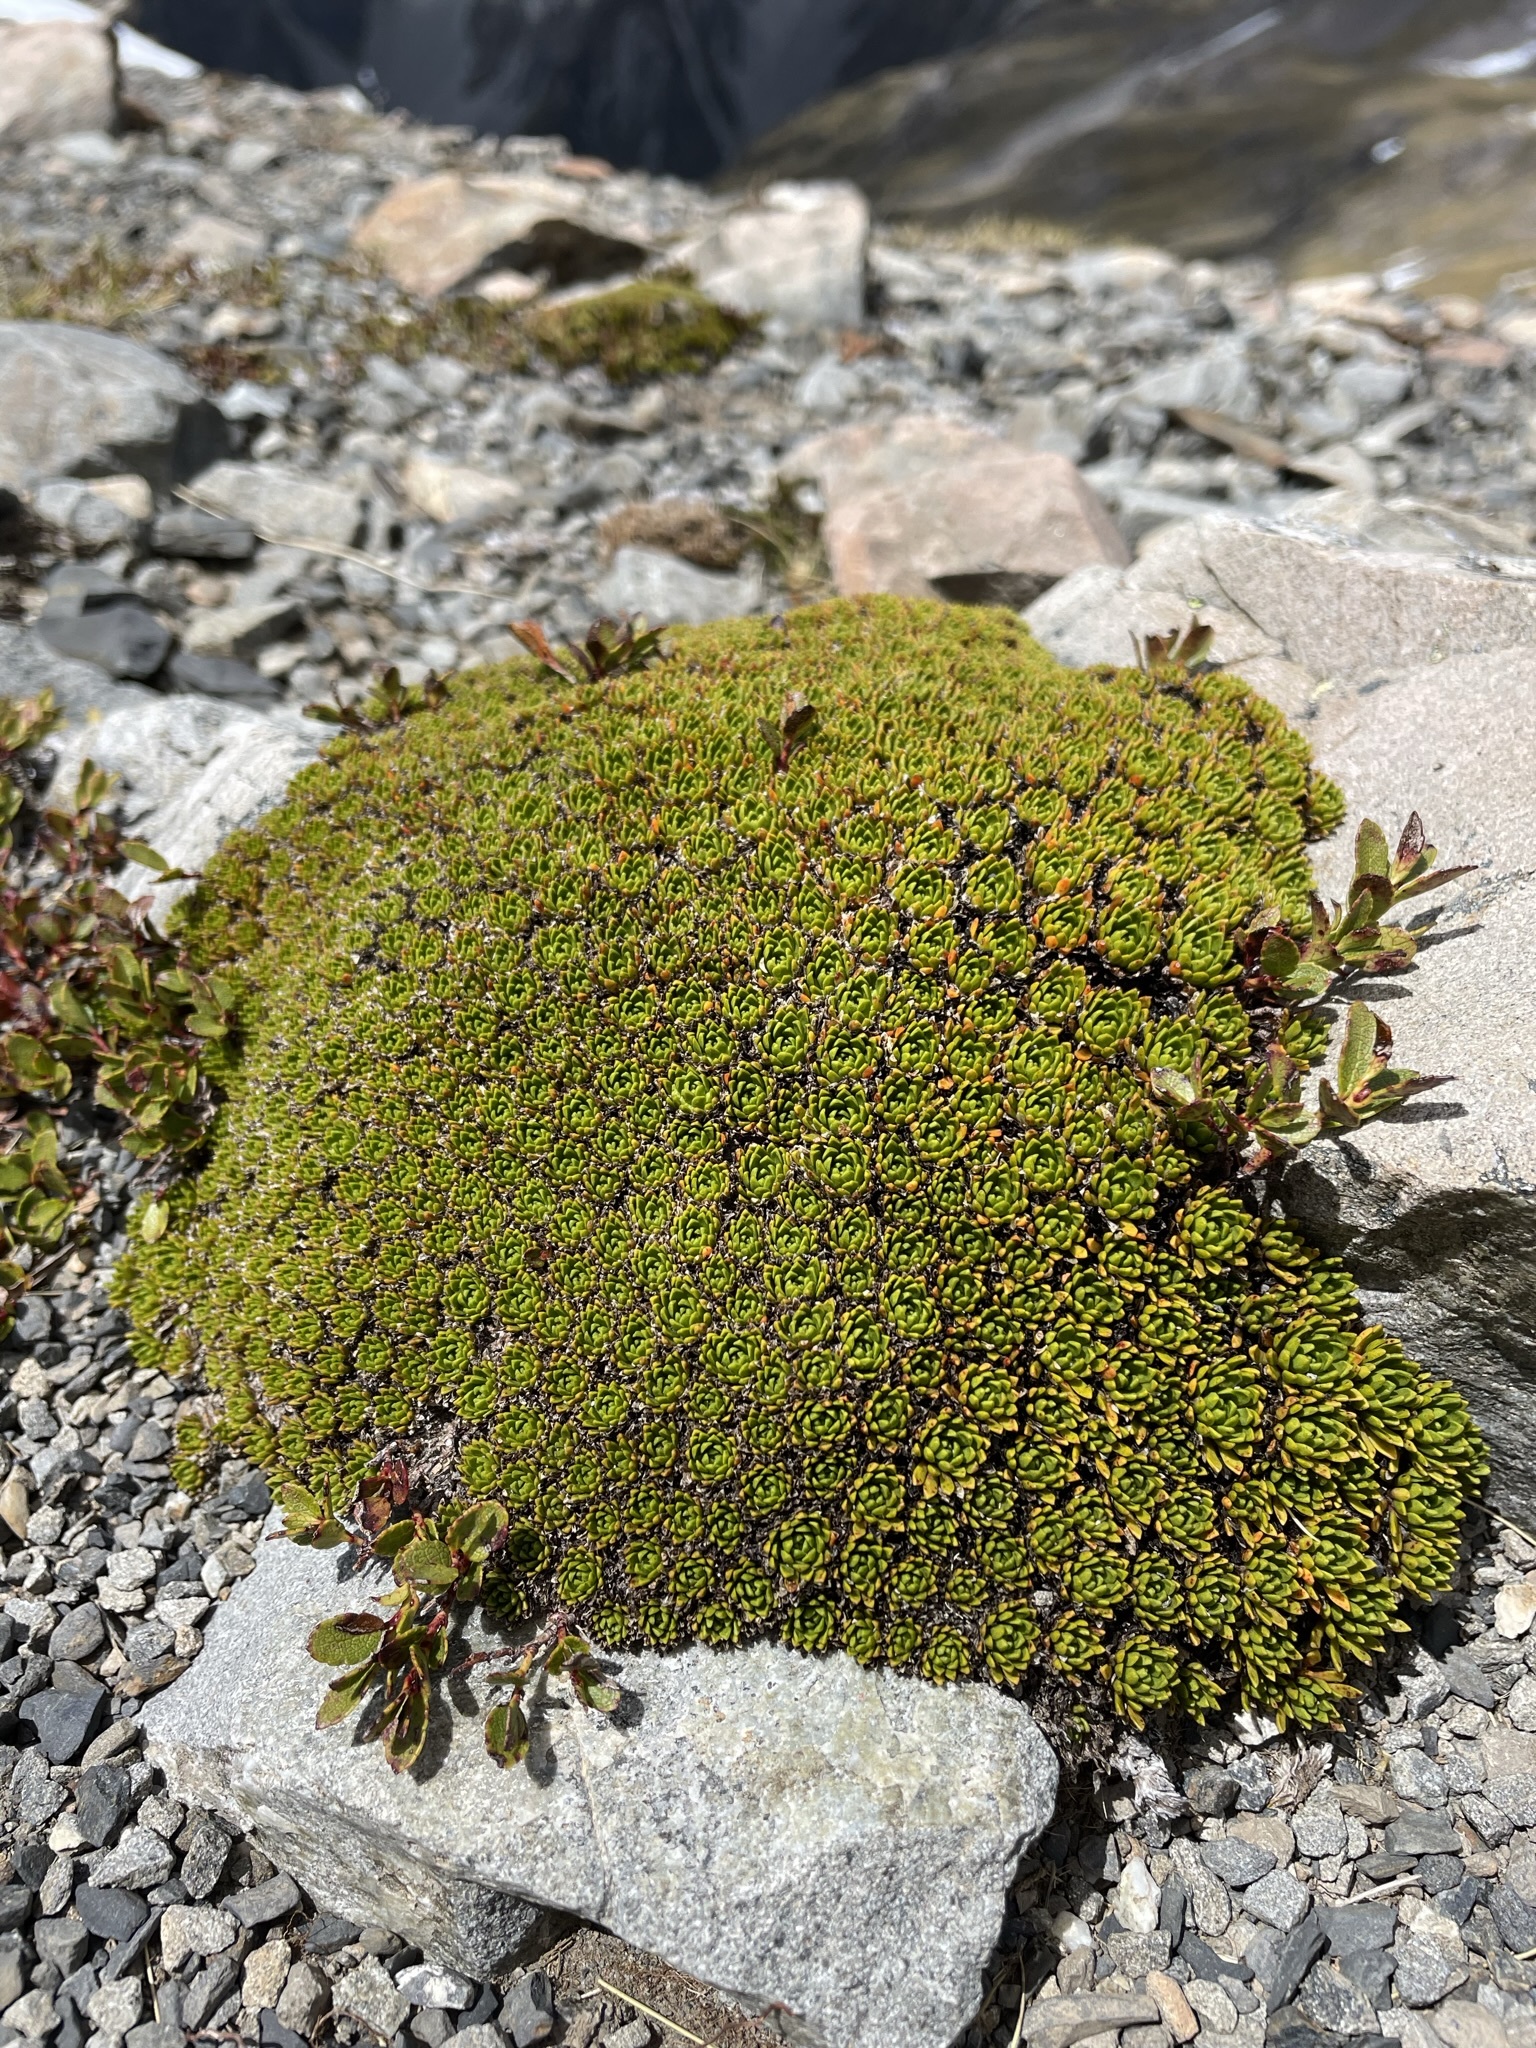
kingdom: Plantae
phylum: Tracheophyta
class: Magnoliopsida
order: Caryophyllales
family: Montiaceae
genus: Hectorella
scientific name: Hectorella caespitosa
